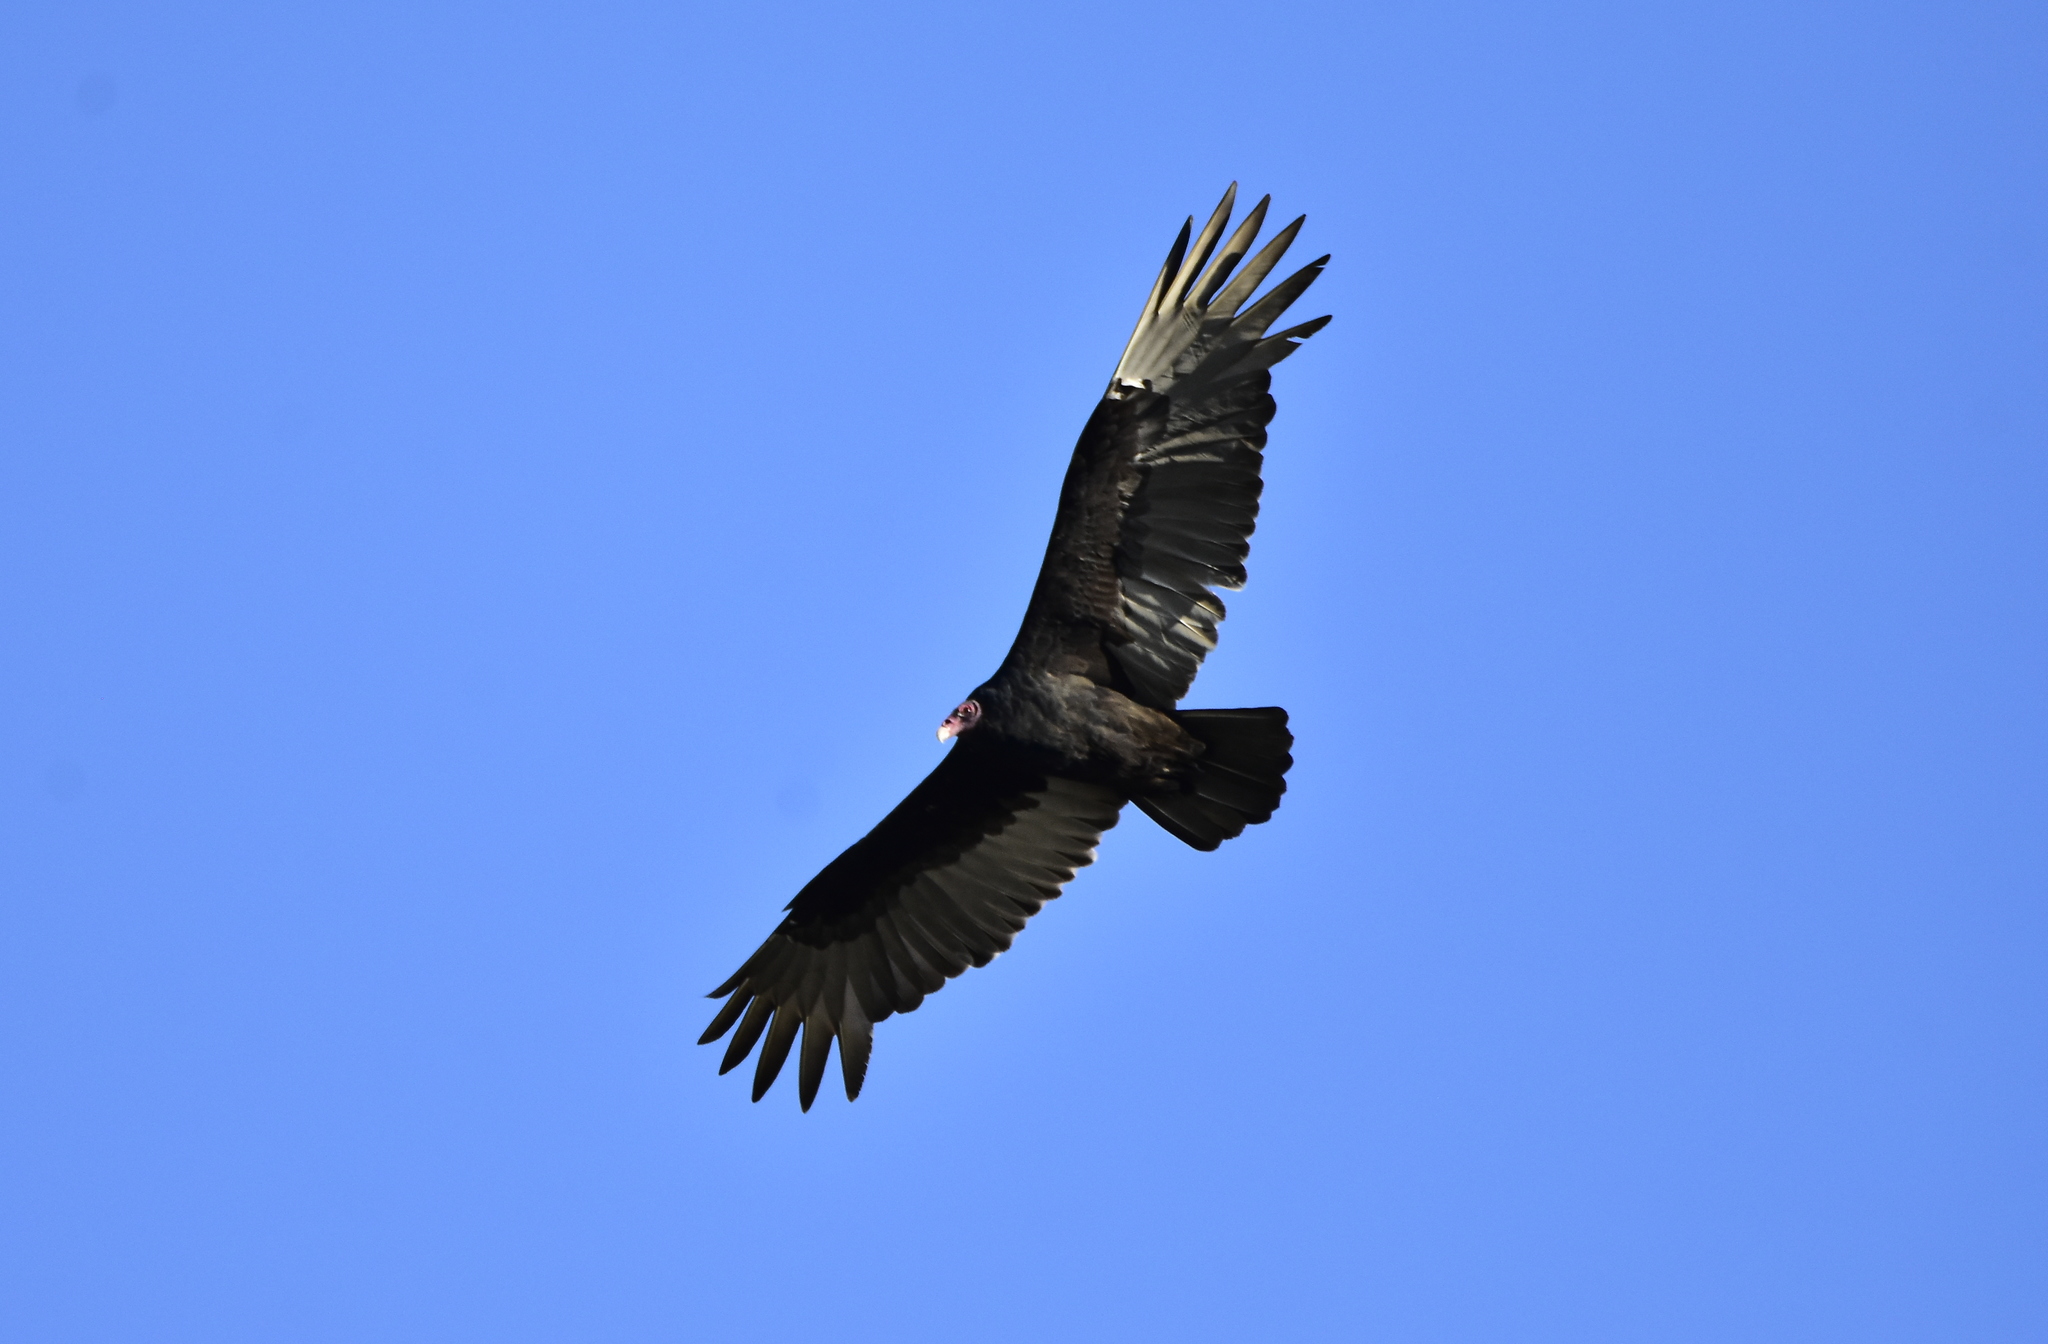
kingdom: Animalia
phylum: Chordata
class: Aves
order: Accipitriformes
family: Cathartidae
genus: Cathartes
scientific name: Cathartes aura
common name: Turkey vulture
